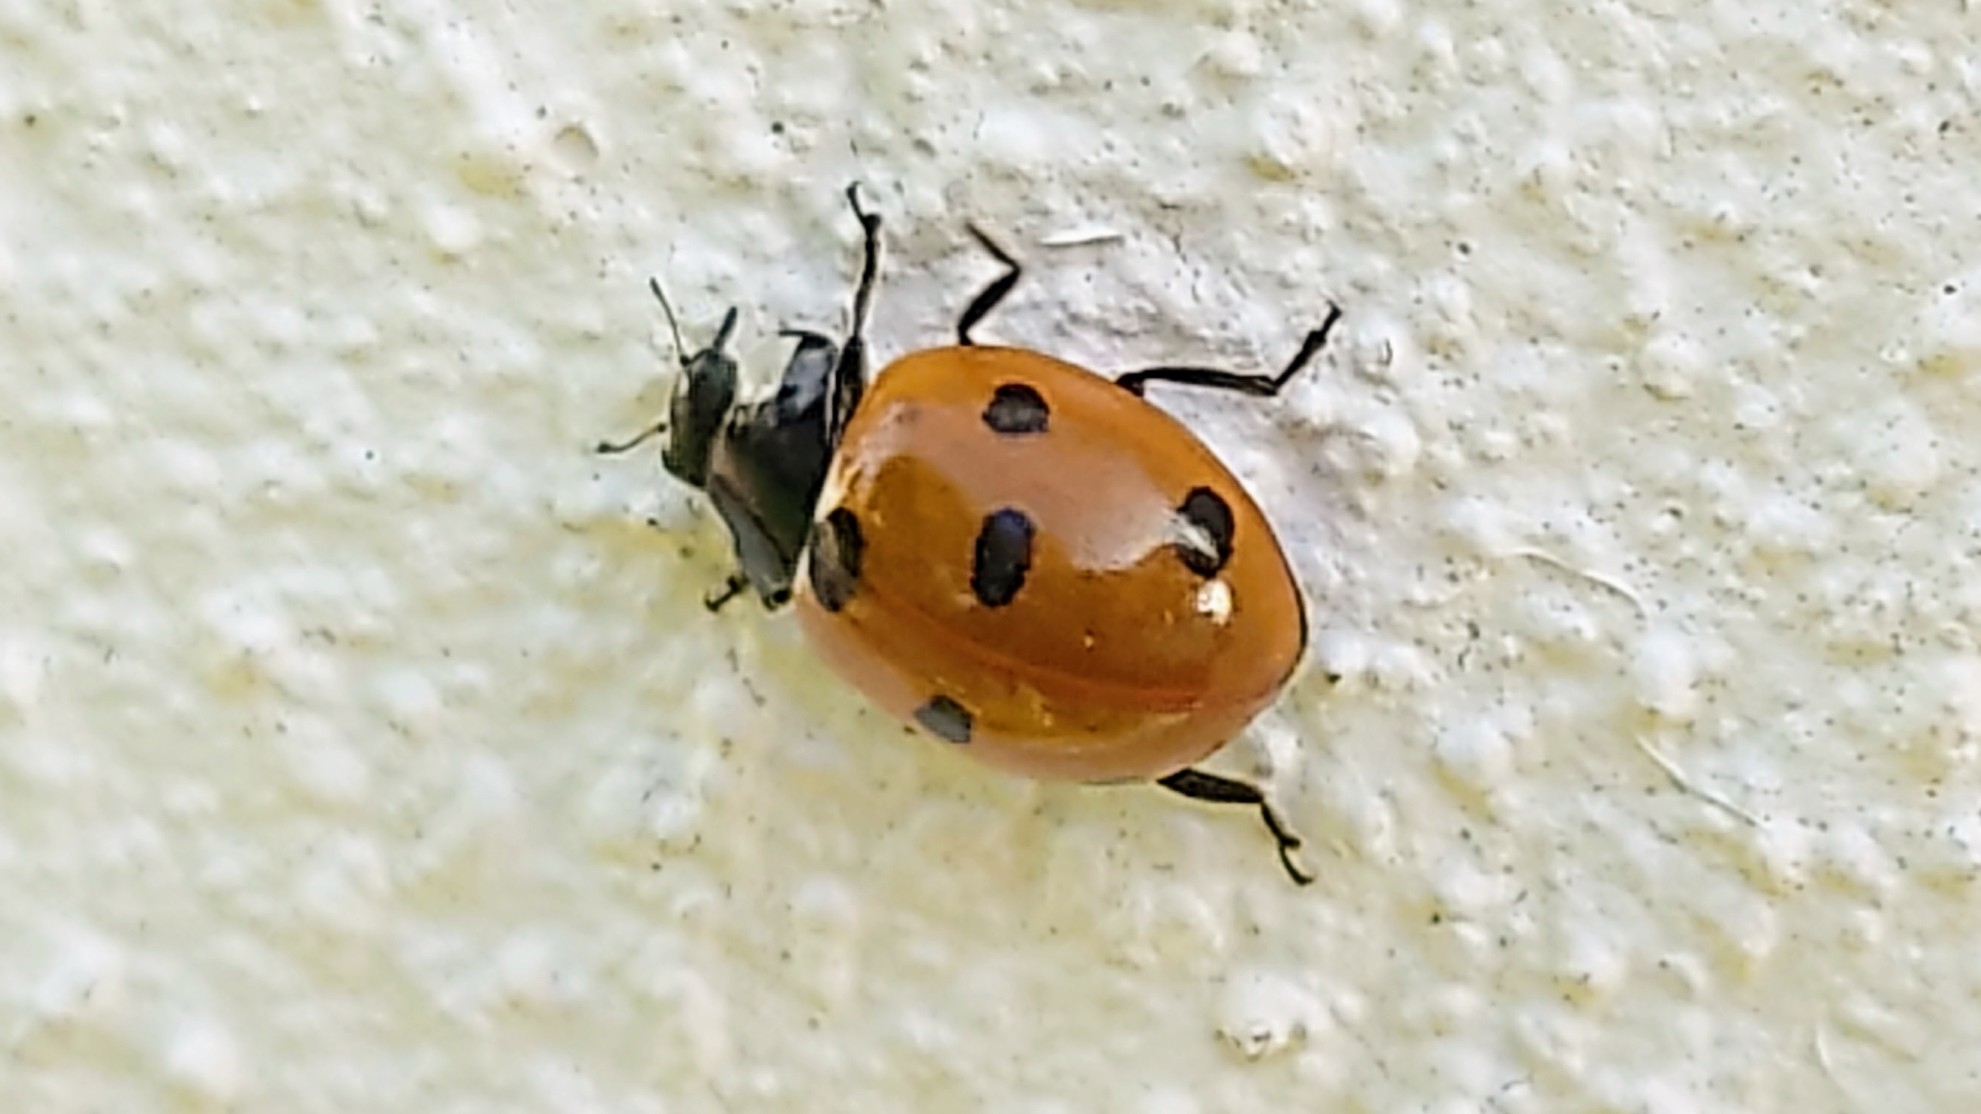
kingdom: Animalia
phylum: Arthropoda
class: Insecta
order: Coleoptera
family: Coccinellidae
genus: Coccinella
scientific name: Coccinella septempunctata
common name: Sevenspotted lady beetle
